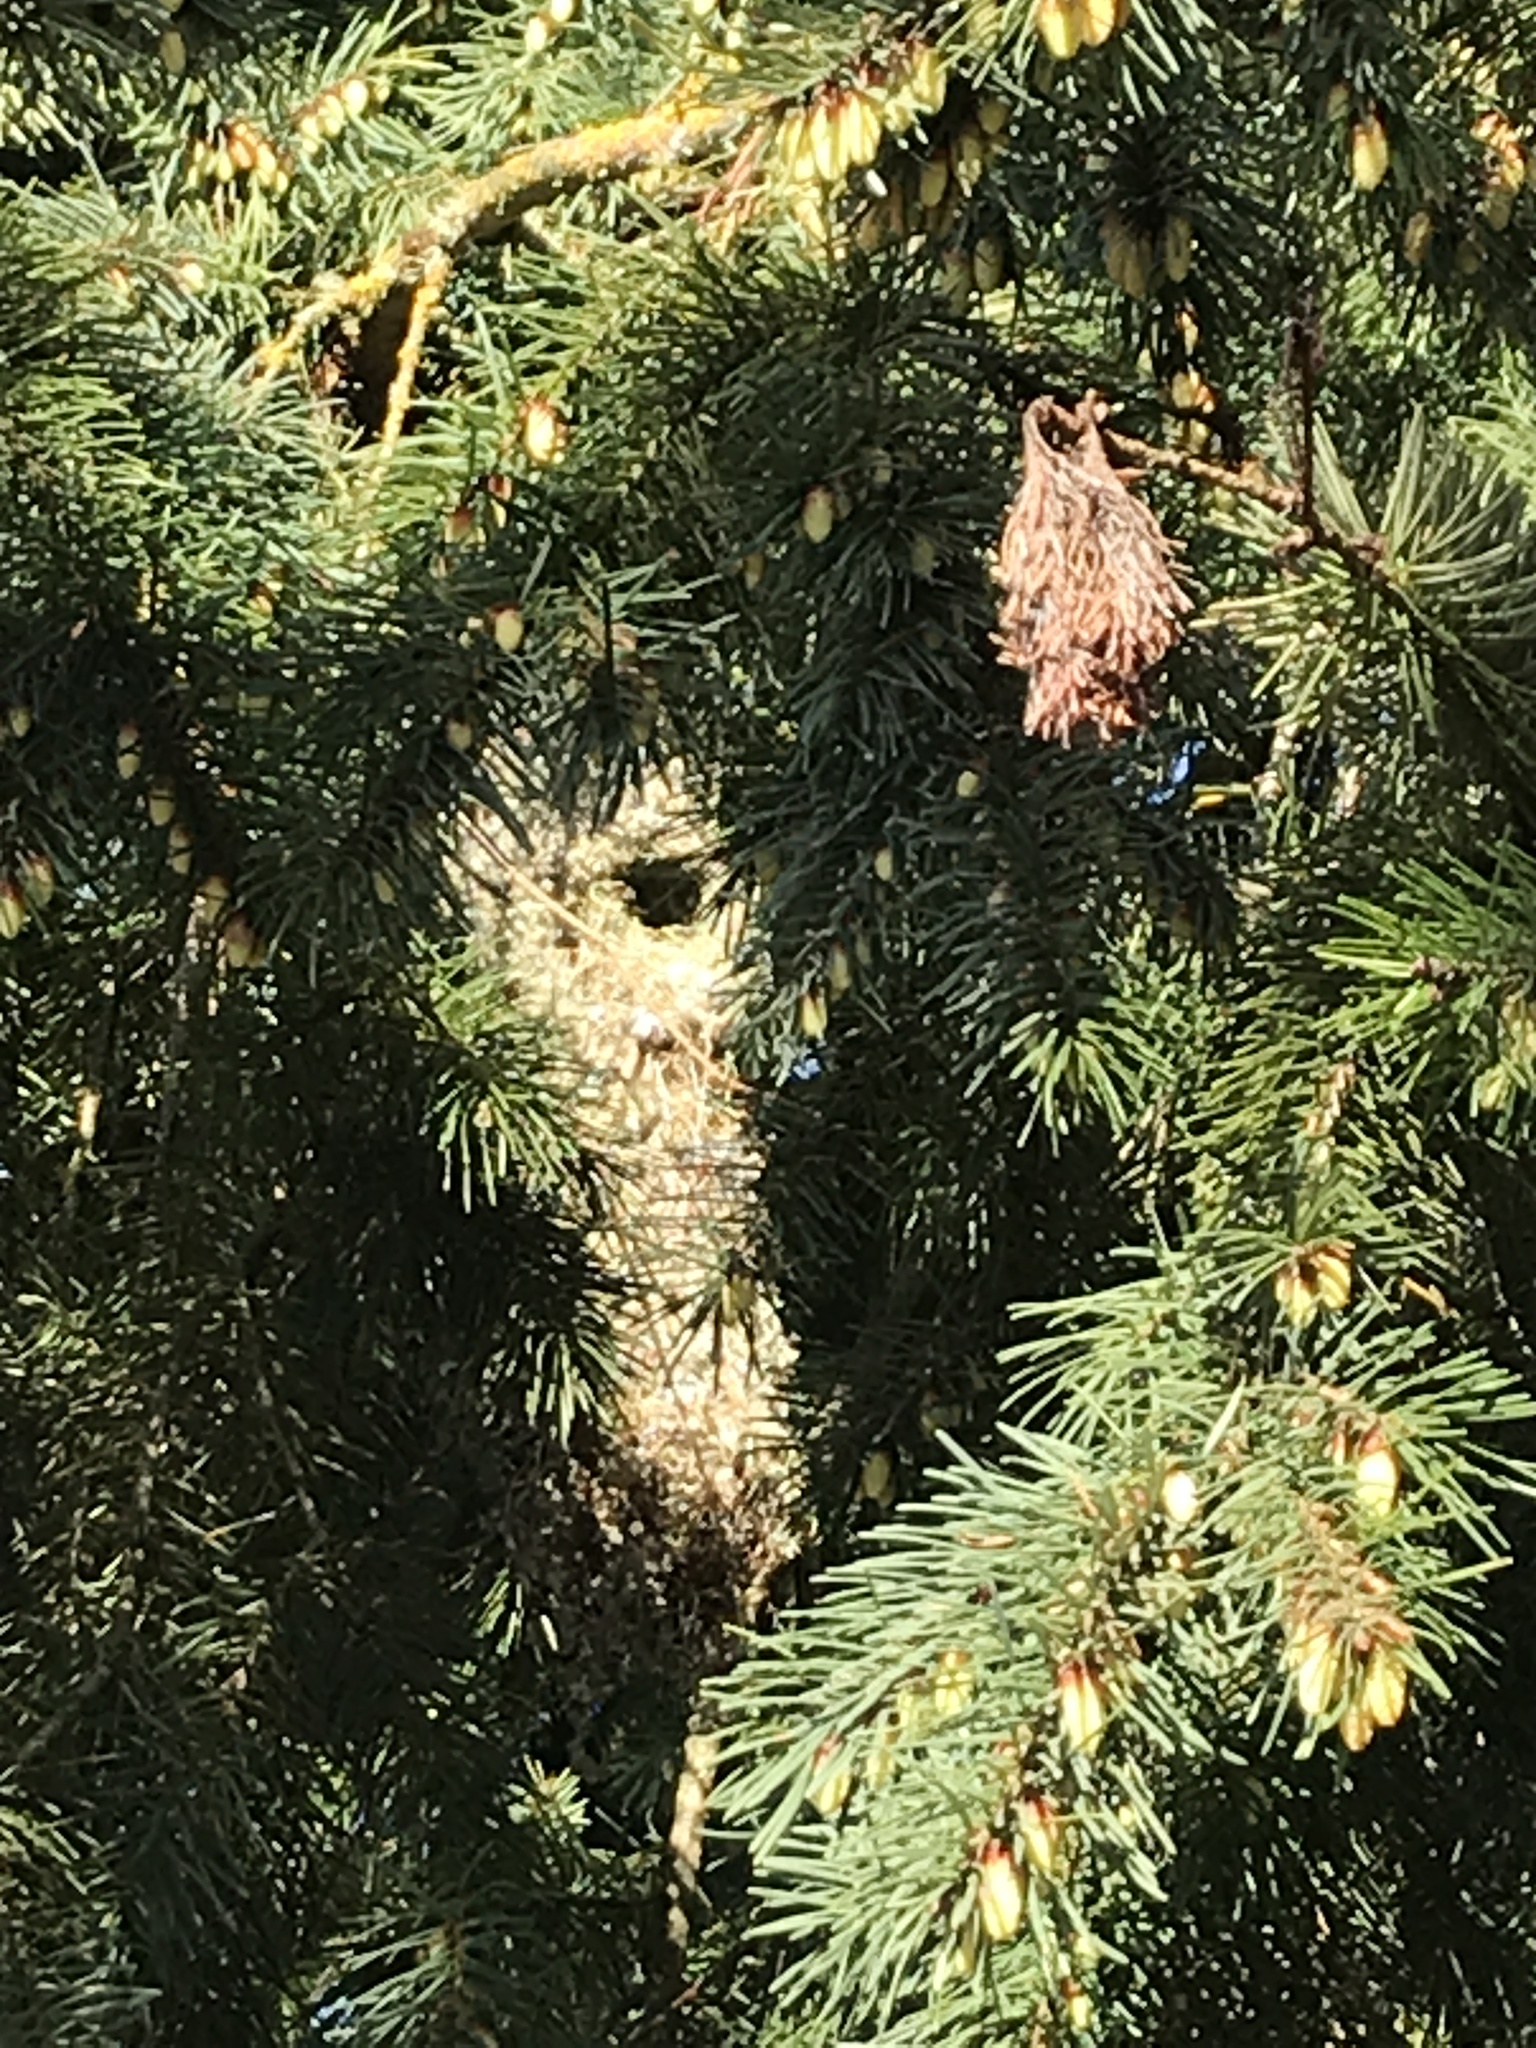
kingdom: Animalia
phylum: Chordata
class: Aves
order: Passeriformes
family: Aegithalidae
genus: Psaltriparus
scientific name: Psaltriparus minimus
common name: American bushtit
